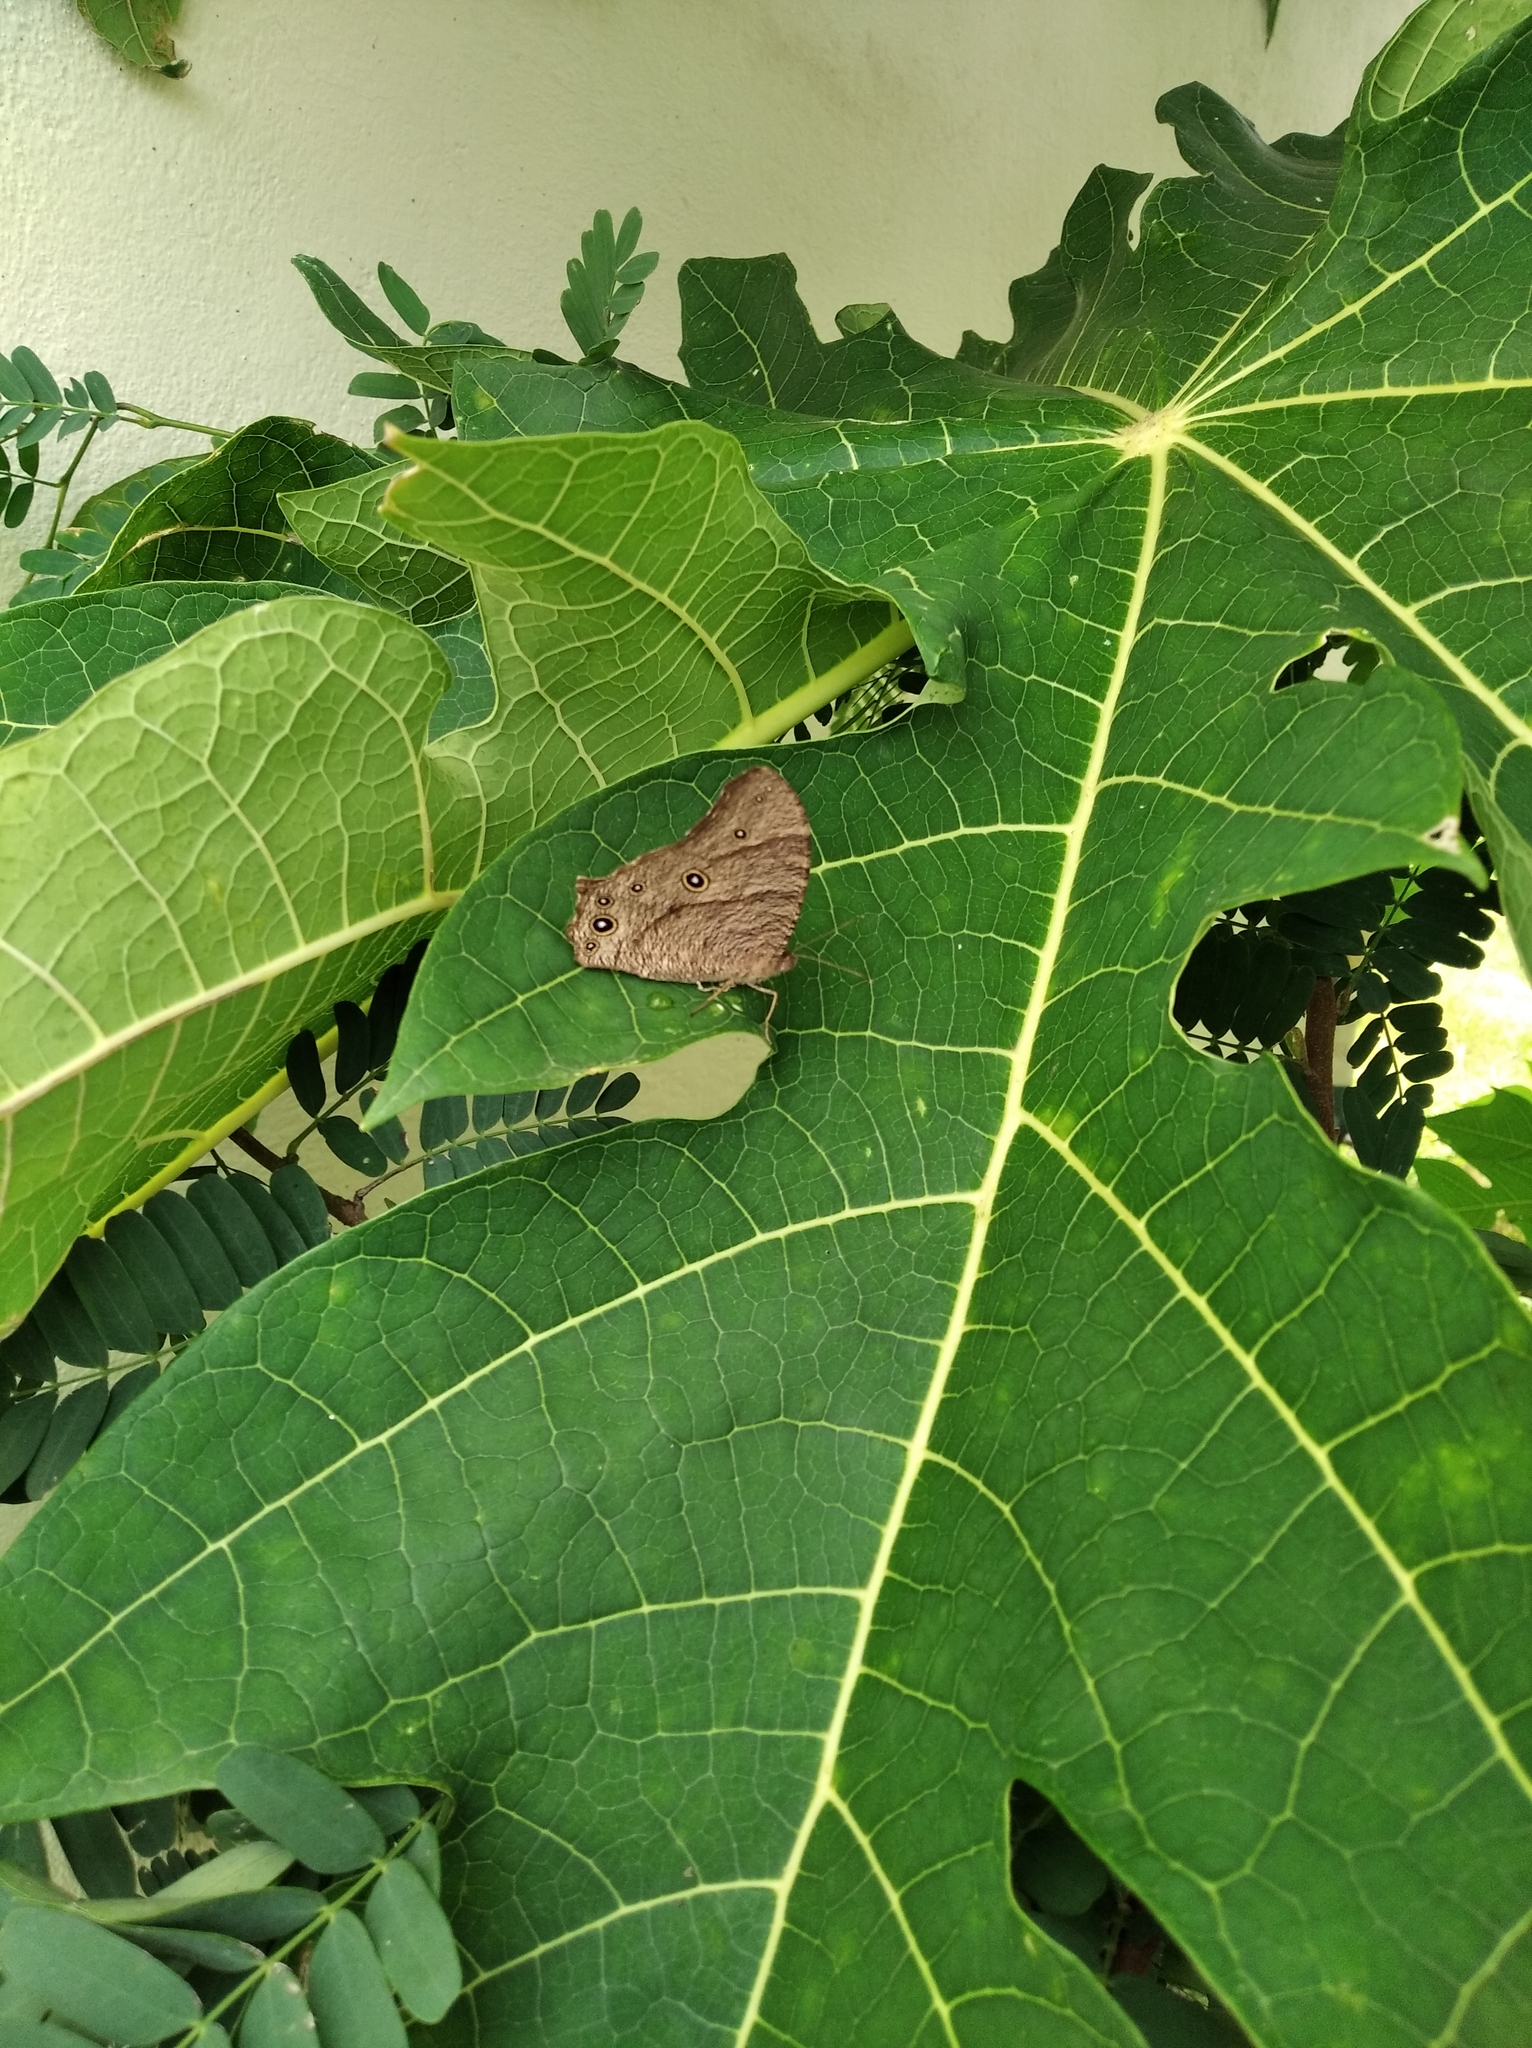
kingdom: Animalia
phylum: Arthropoda
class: Insecta
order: Lepidoptera
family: Nymphalidae
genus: Melanitis
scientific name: Melanitis leda
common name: Twilight brown
